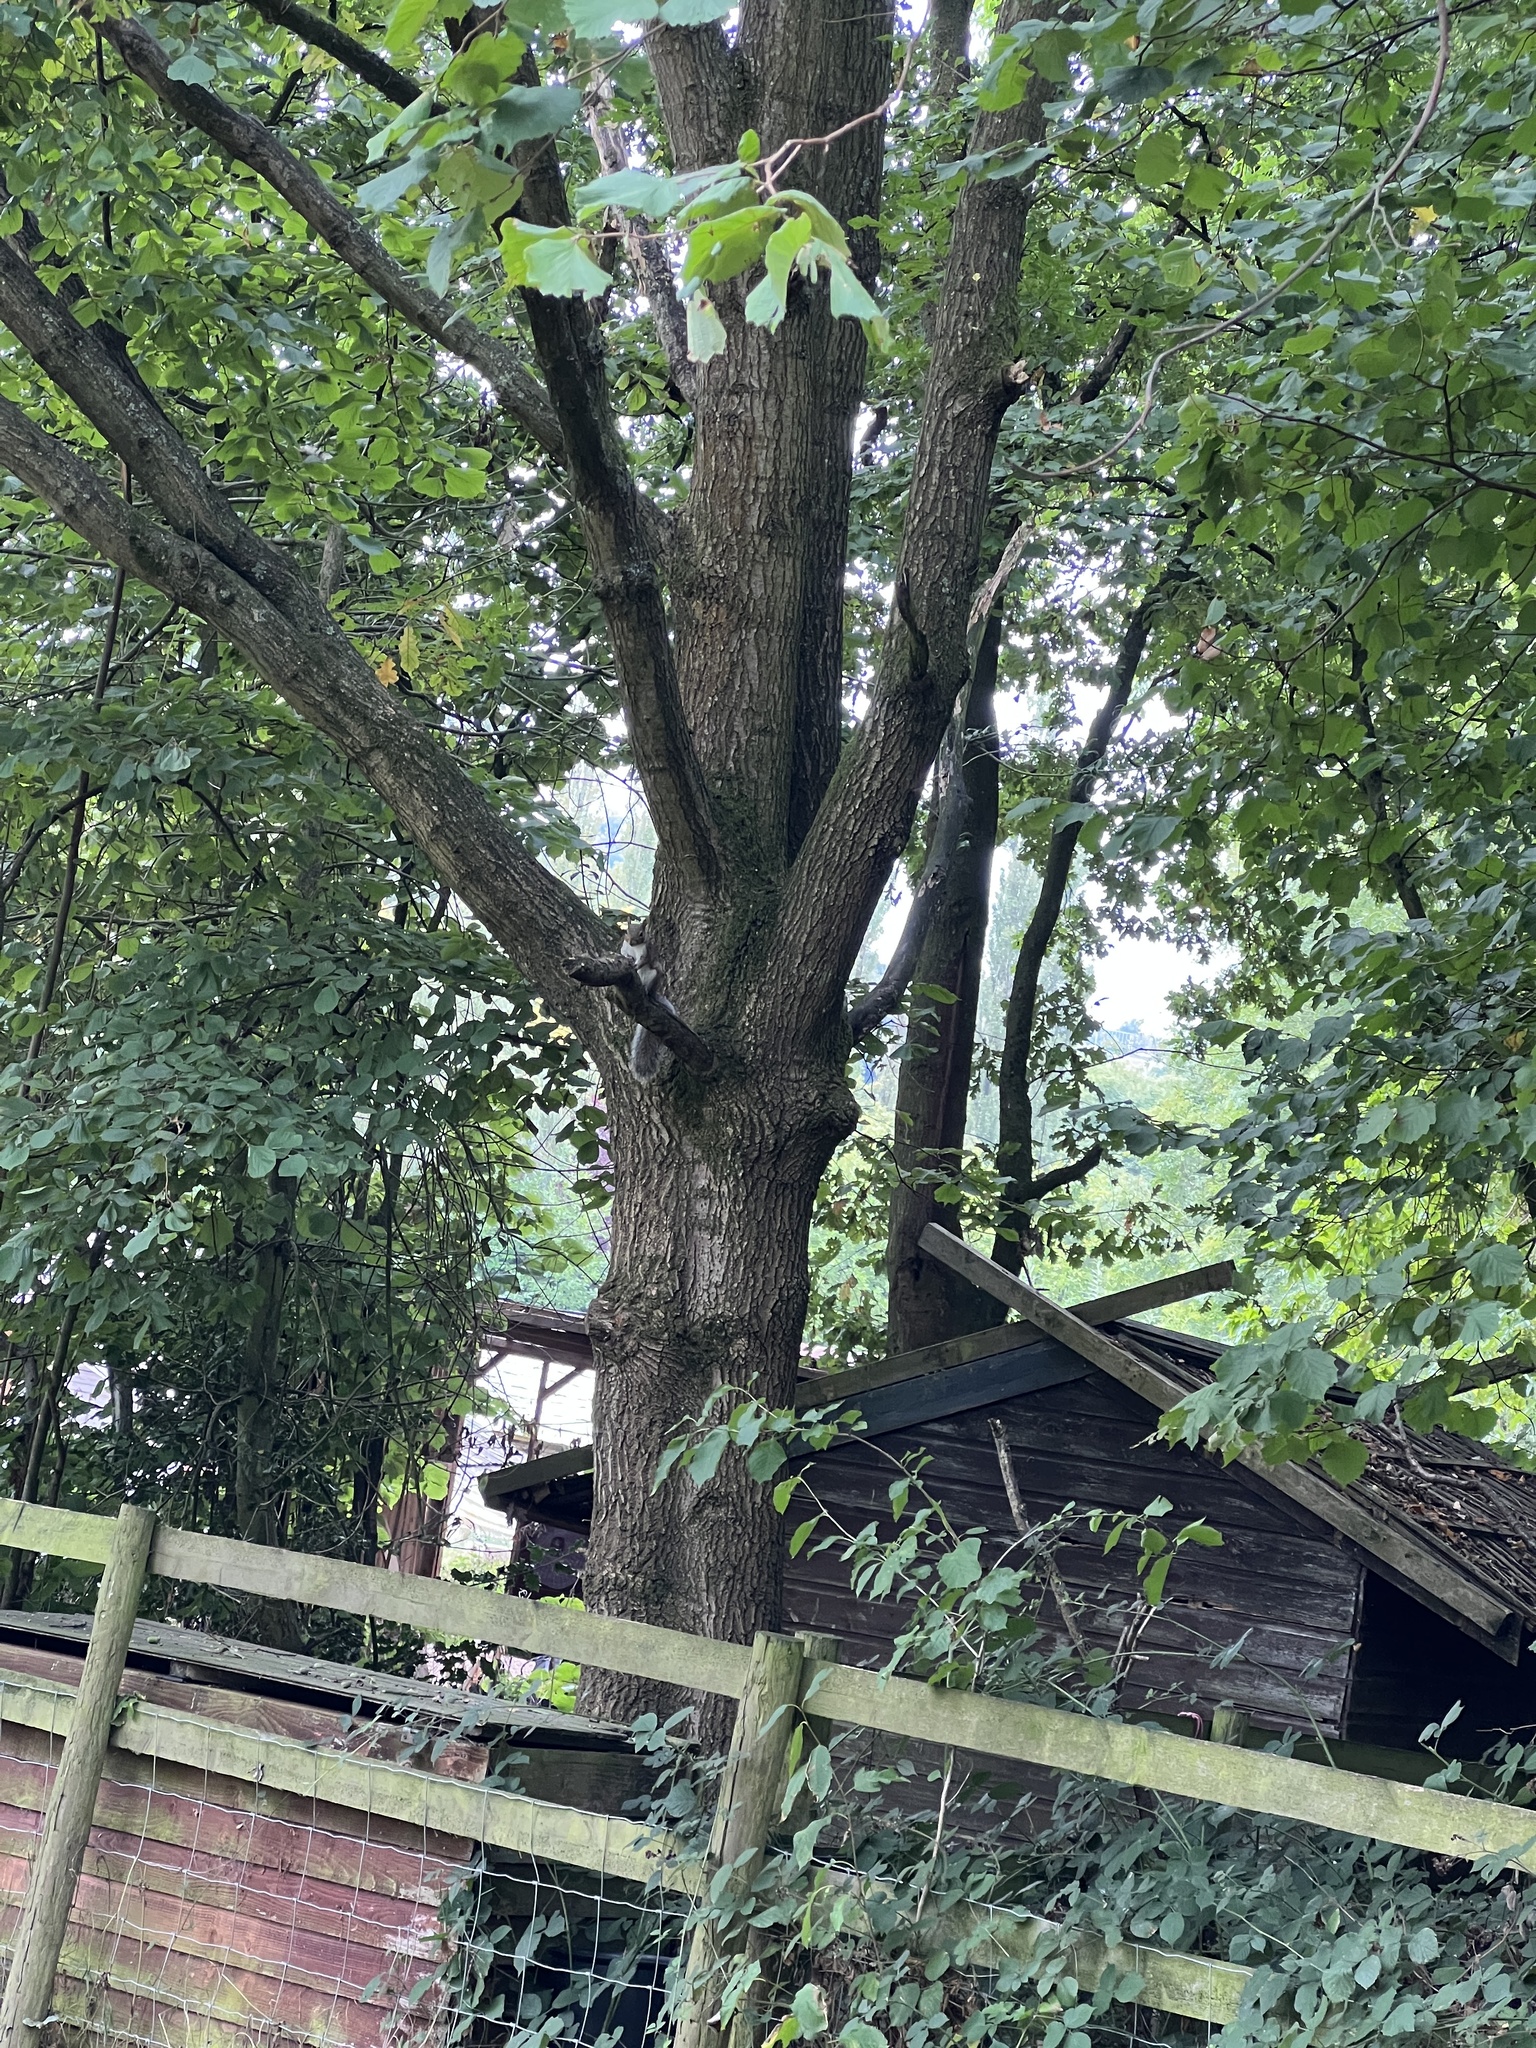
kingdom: Animalia
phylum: Chordata
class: Mammalia
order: Rodentia
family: Sciuridae
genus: Sciurus
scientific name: Sciurus carolinensis
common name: Eastern gray squirrel
